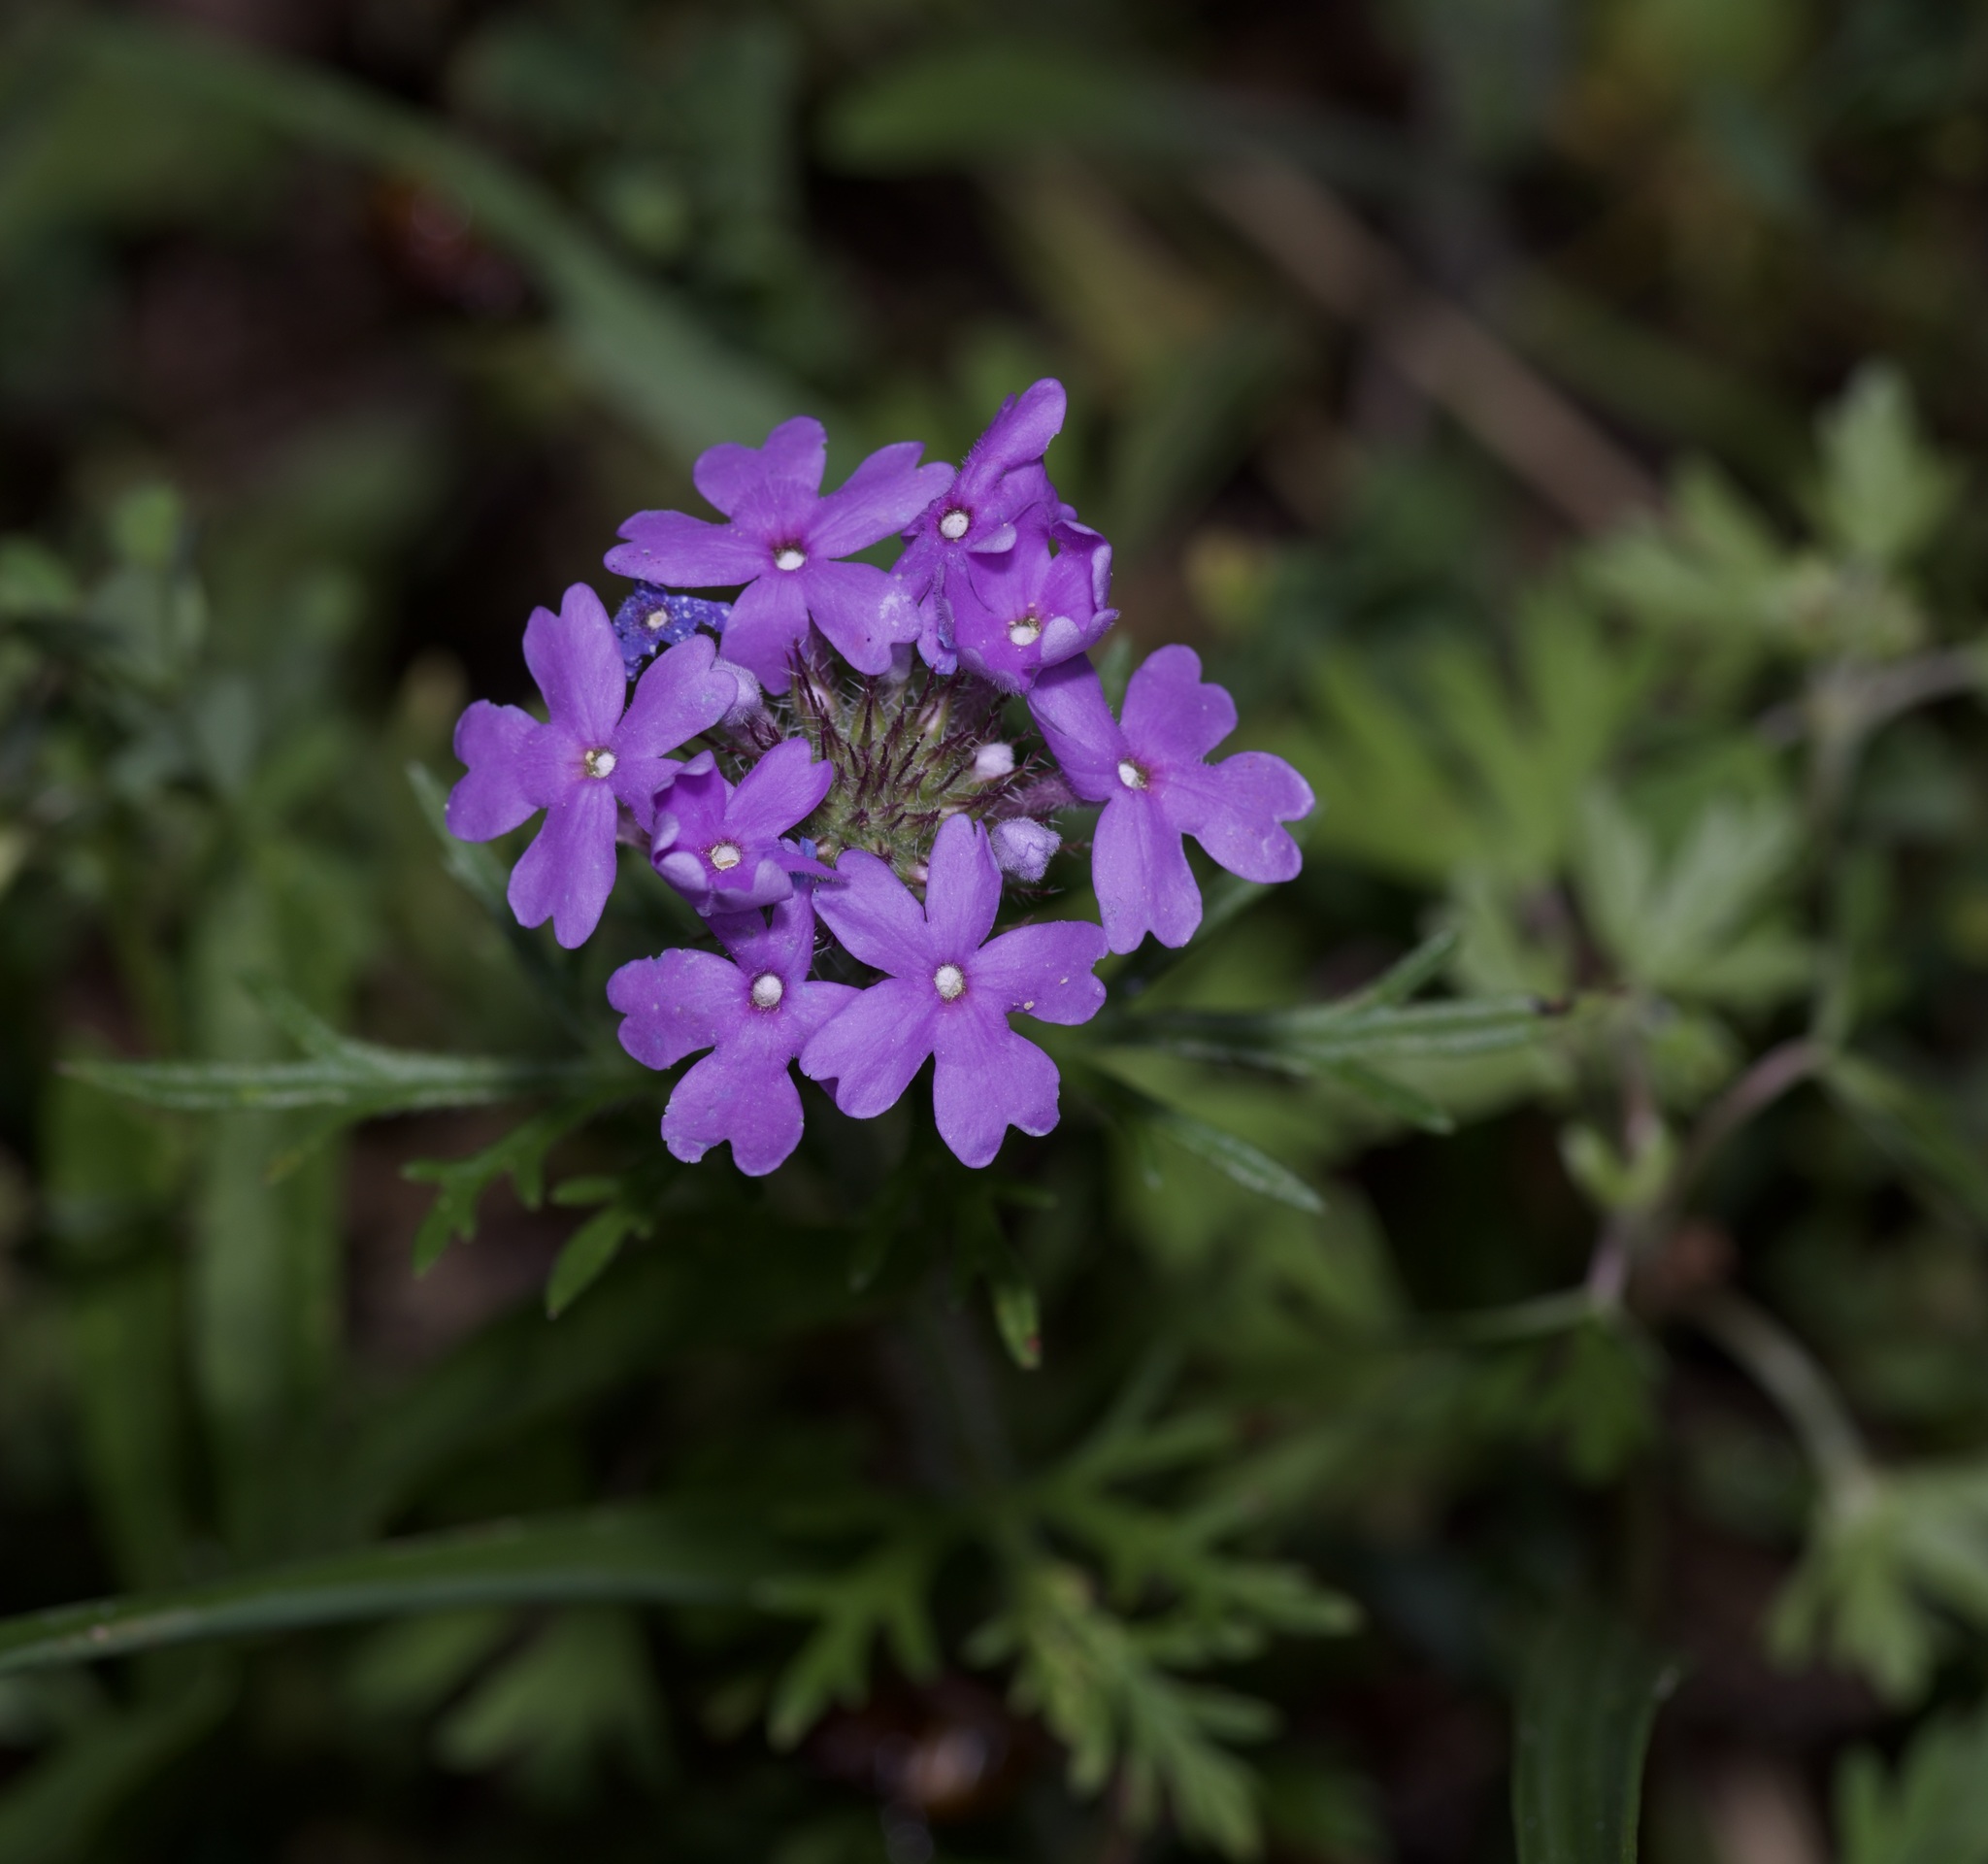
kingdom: Plantae
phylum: Tracheophyta
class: Magnoliopsida
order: Lamiales
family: Verbenaceae
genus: Verbena
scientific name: Verbena bipinnatifida
